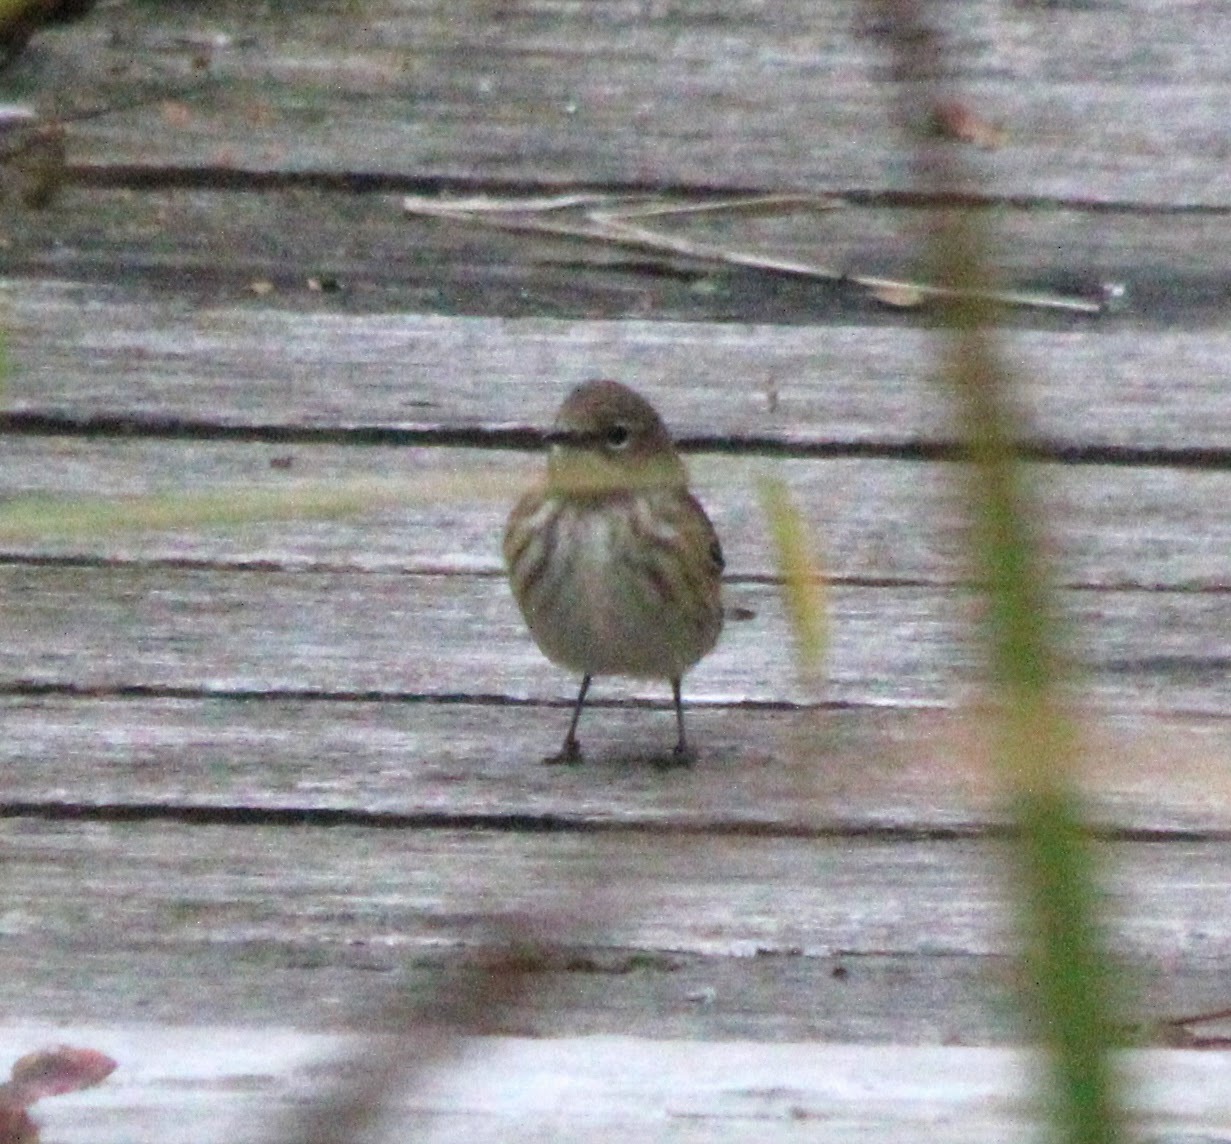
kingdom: Animalia
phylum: Chordata
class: Aves
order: Passeriformes
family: Parulidae
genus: Setophaga
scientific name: Setophaga coronata
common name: Myrtle warbler
